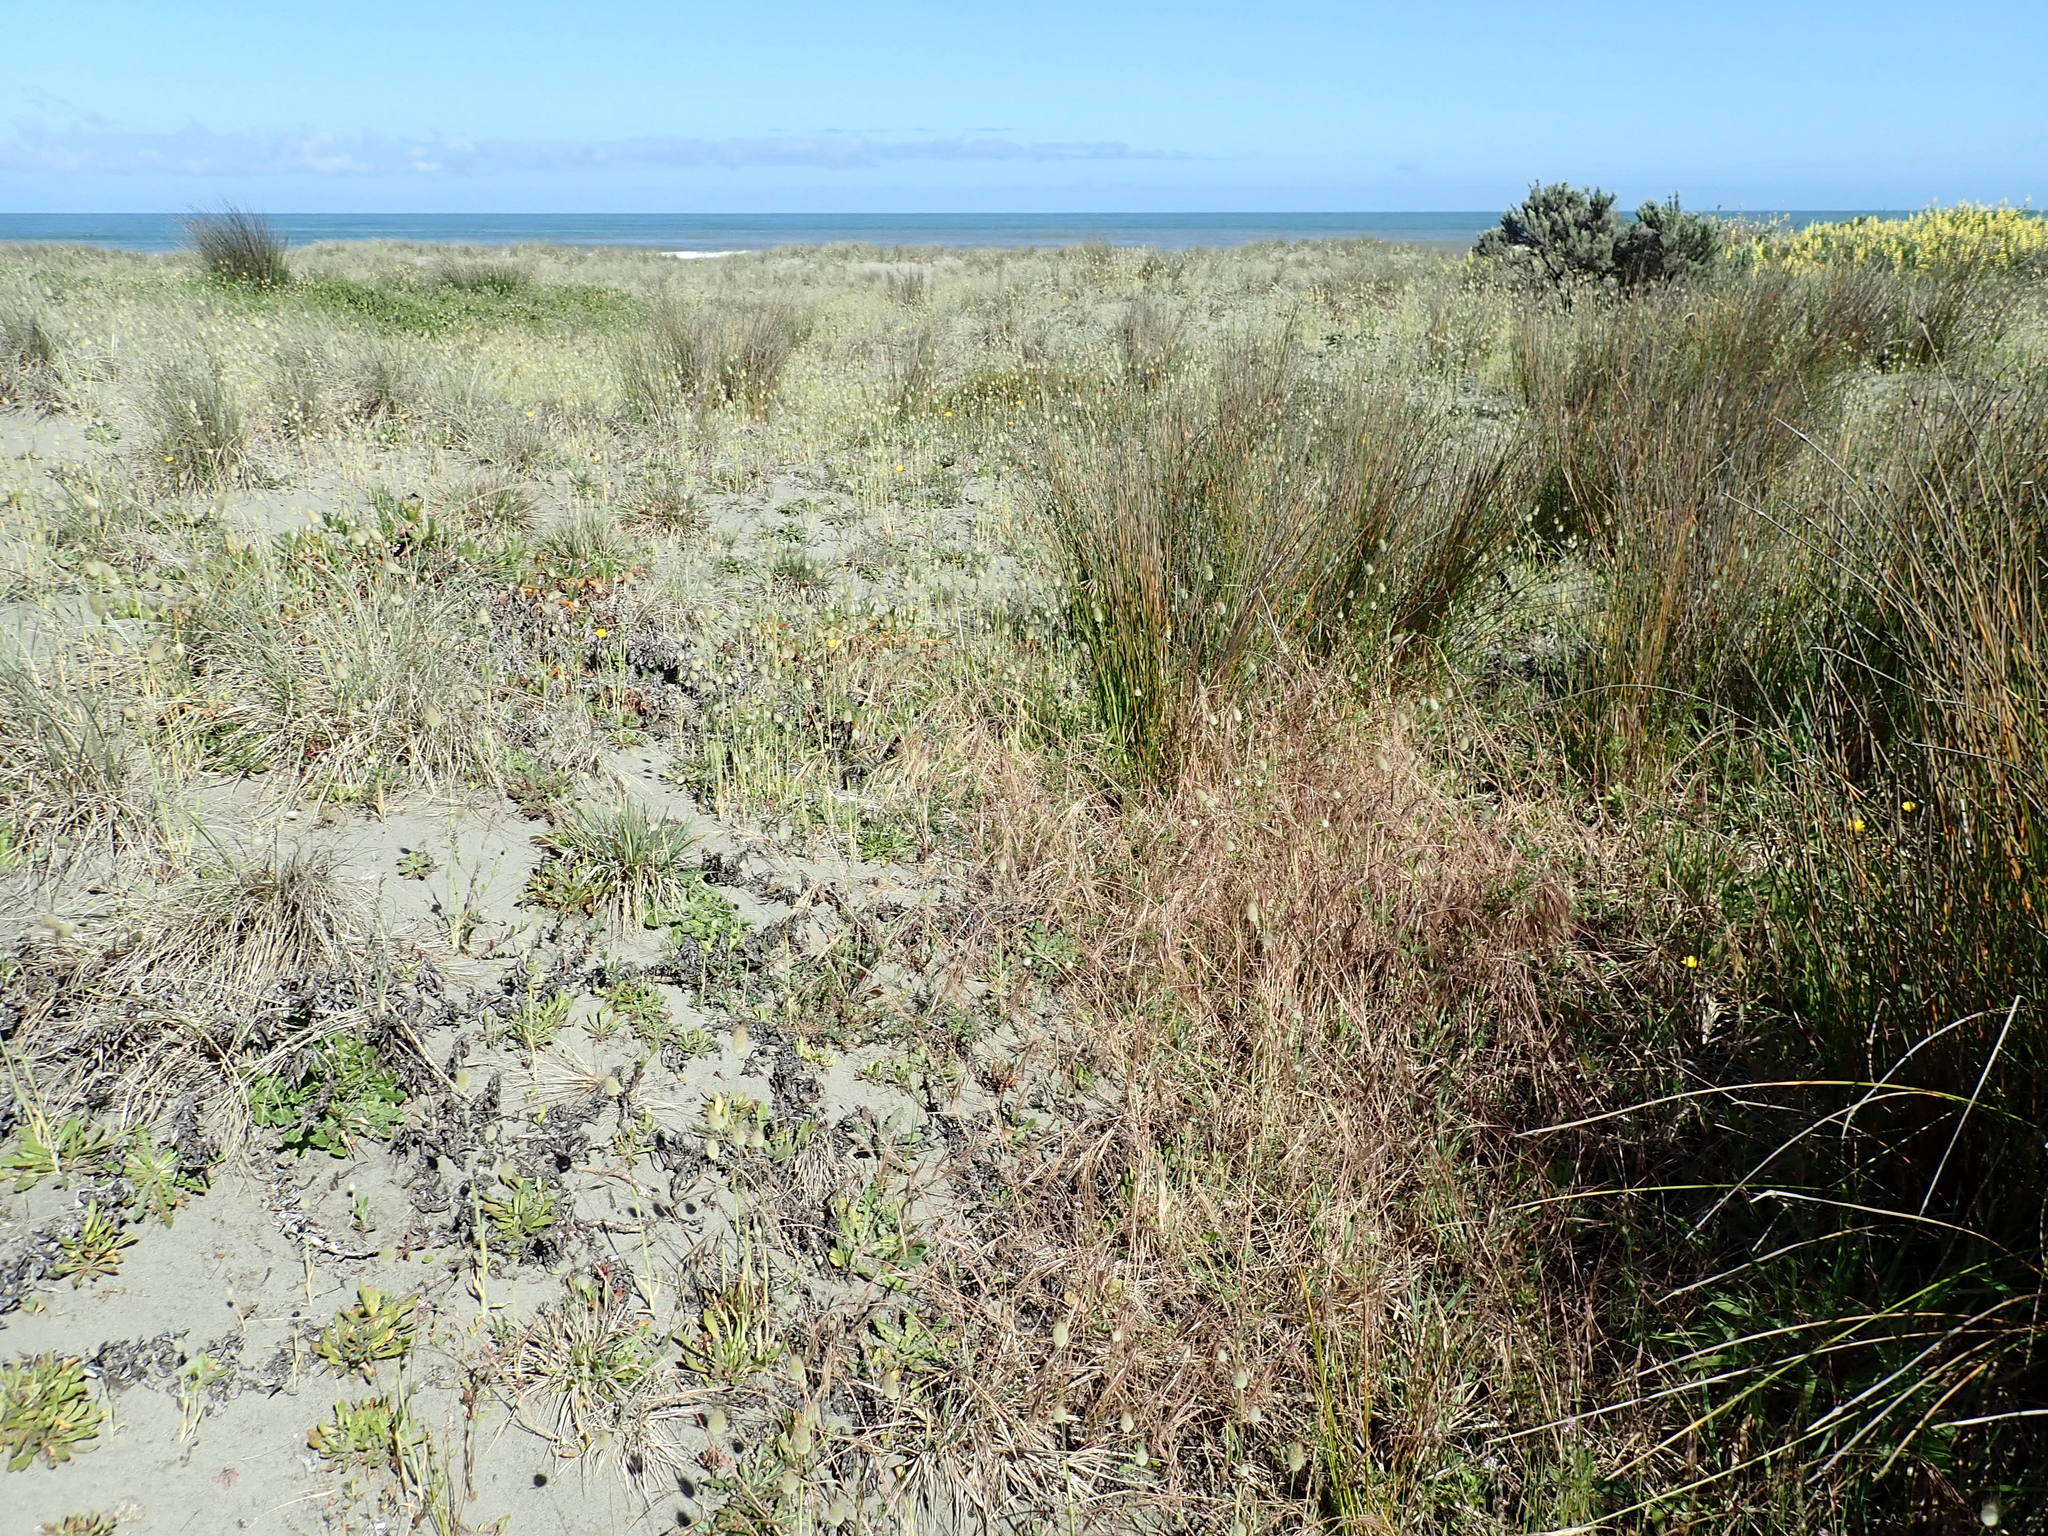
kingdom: Plantae
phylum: Tracheophyta
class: Liliopsida
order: Poales
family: Poaceae
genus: Bromus
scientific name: Bromus diandrus
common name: Ripgut brome
